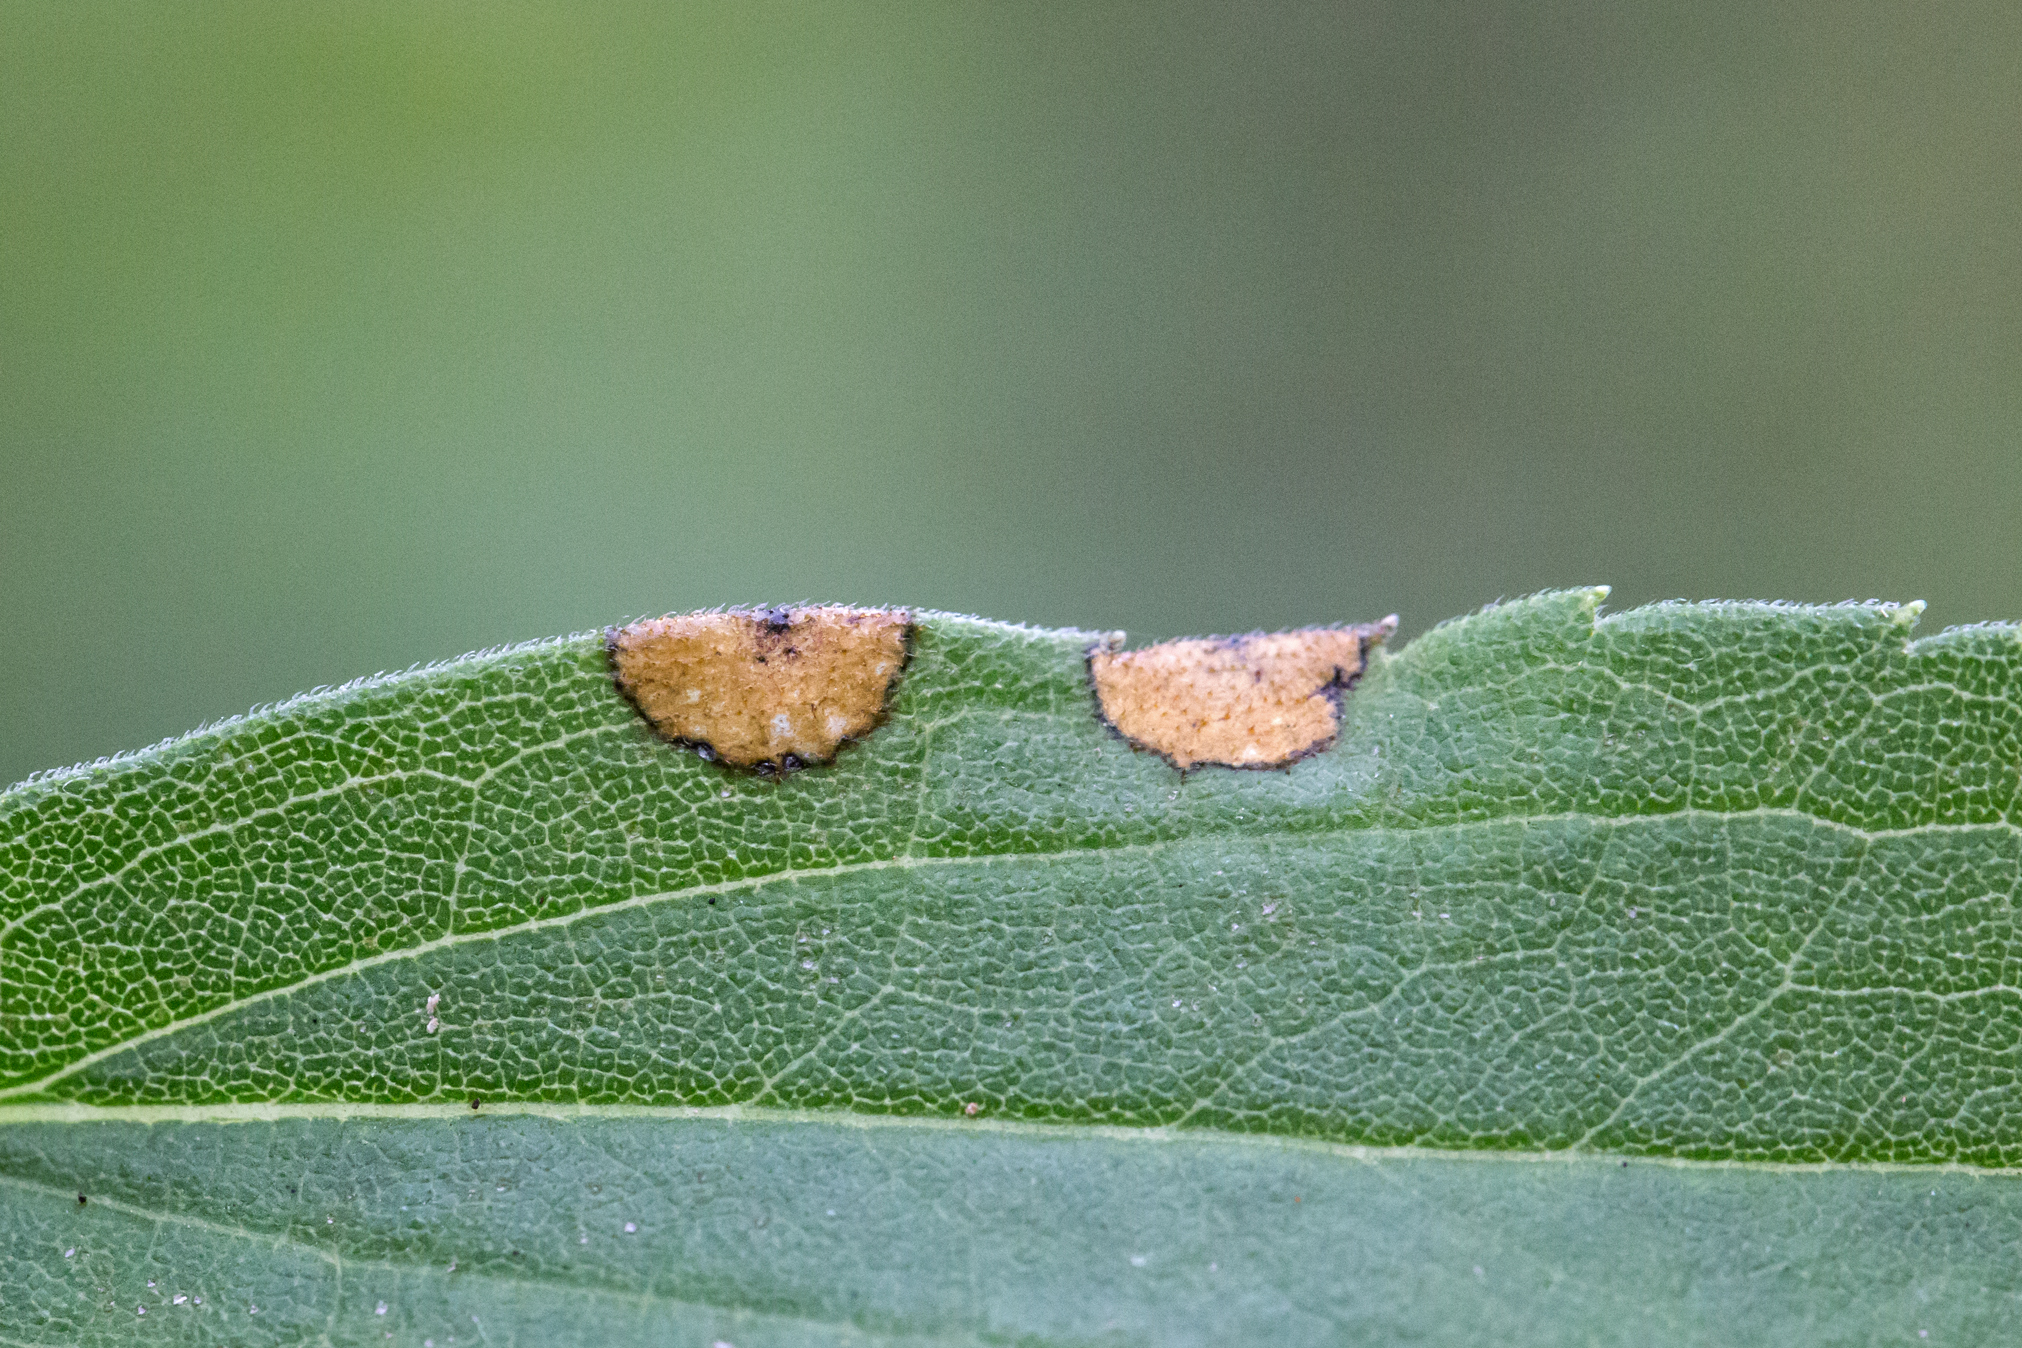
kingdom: Animalia
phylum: Arthropoda
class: Insecta
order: Diptera
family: Cecidomyiidae
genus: Asteromyia
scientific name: Asteromyia carbonifera
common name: Carbonifera goldenrod gall midge
